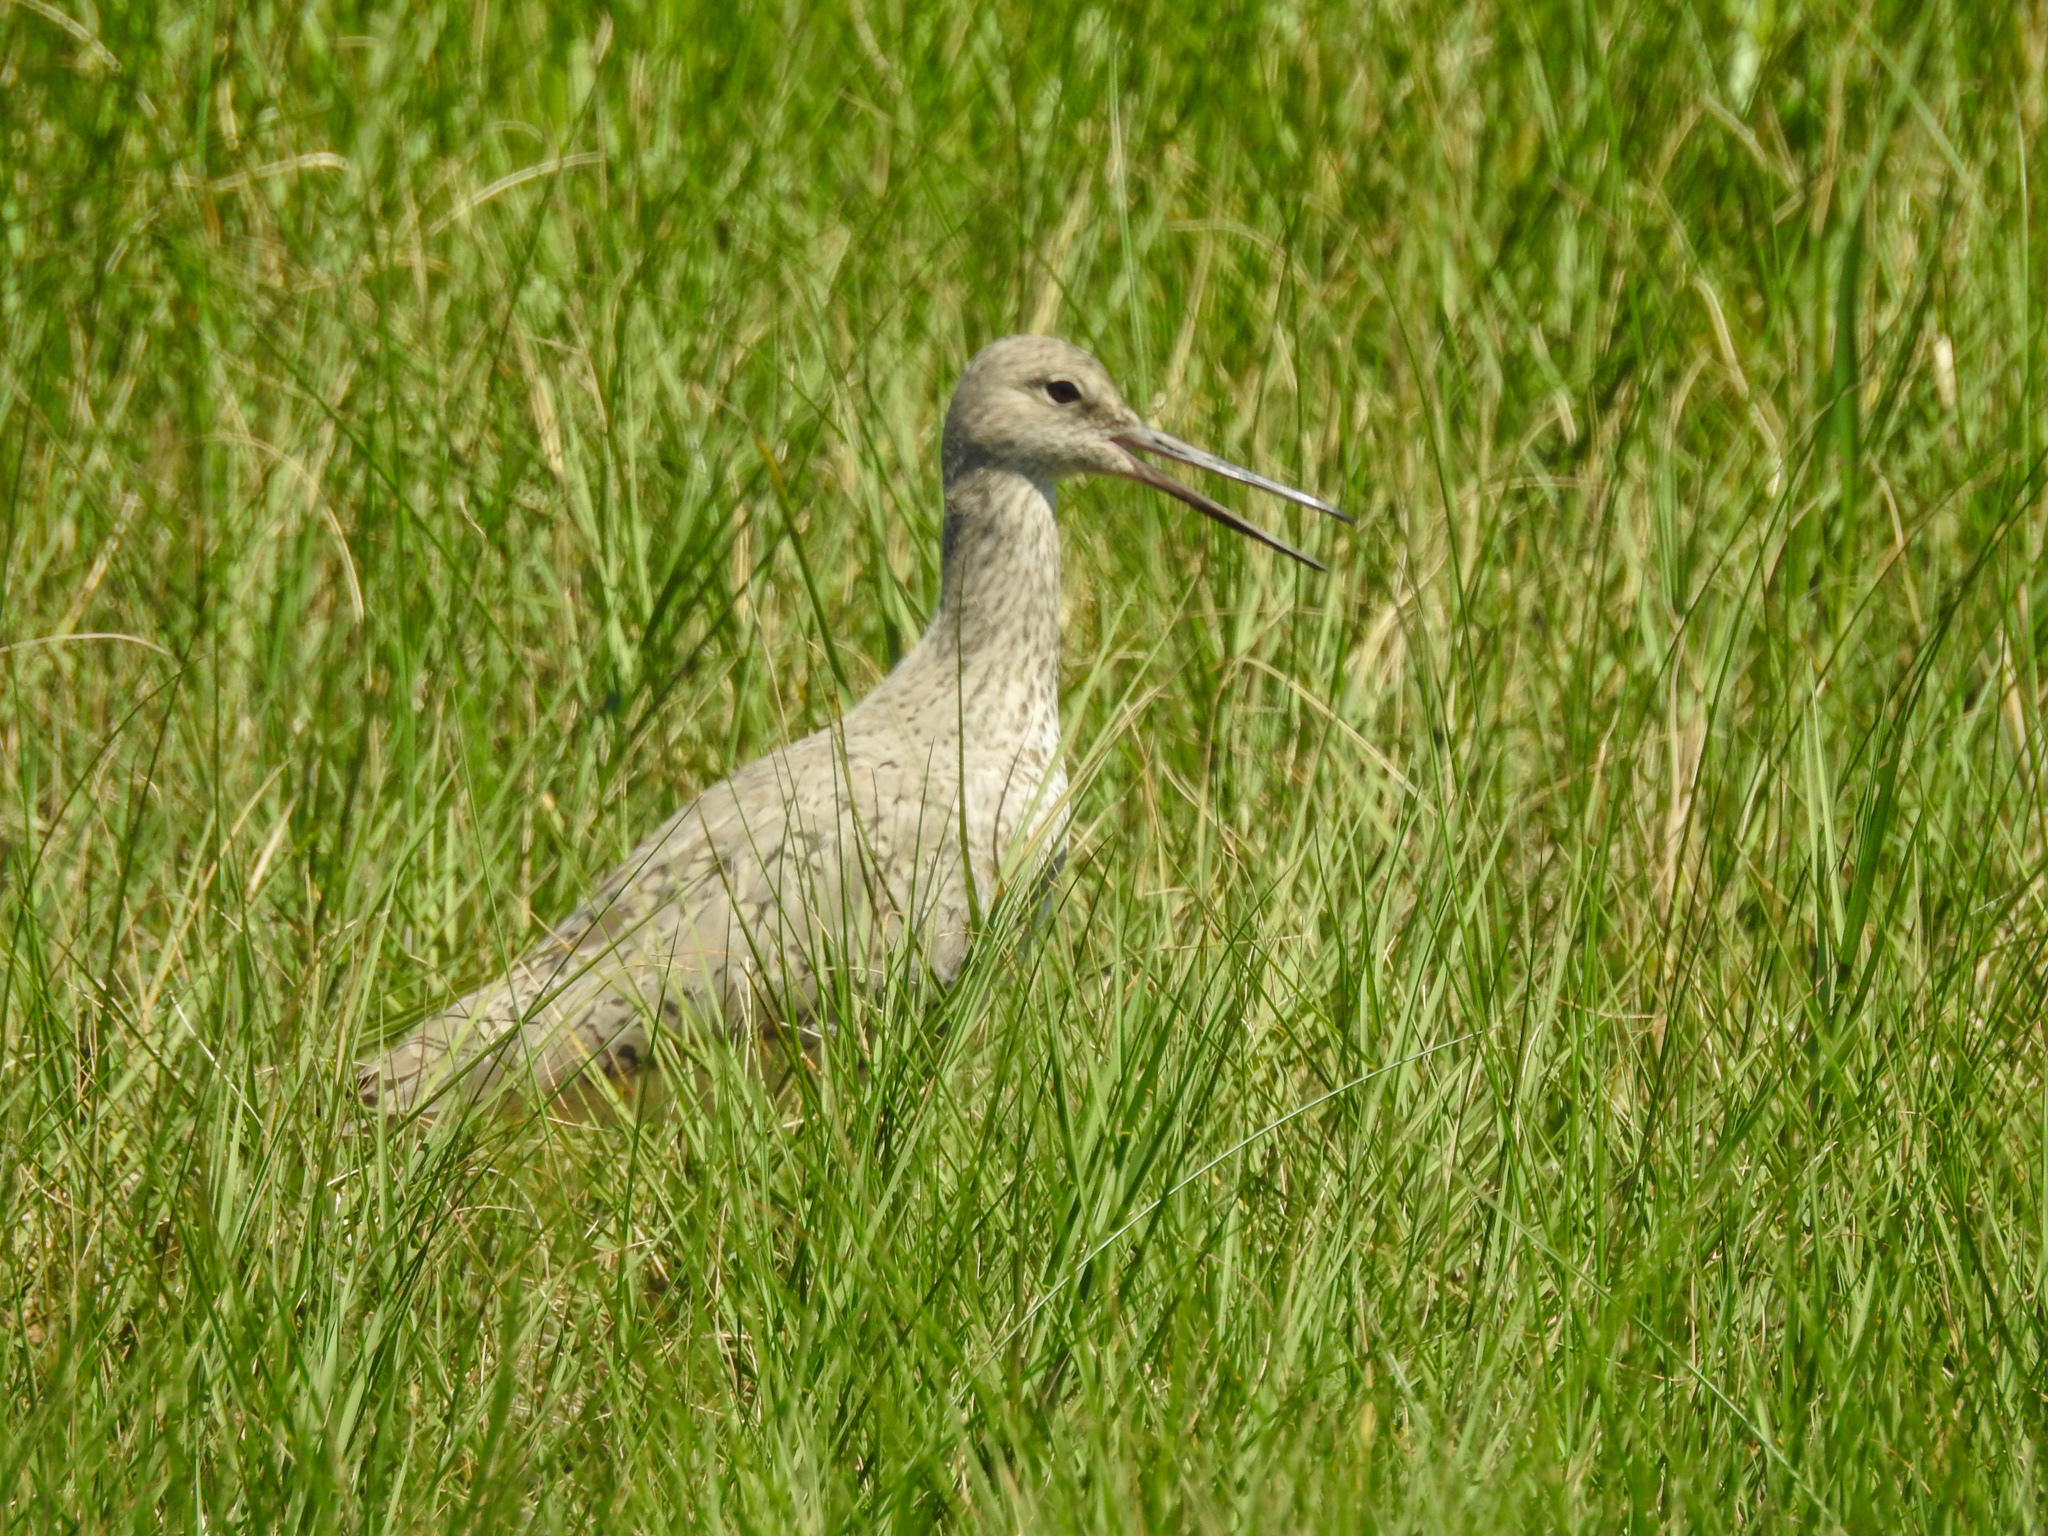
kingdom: Animalia
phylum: Chordata
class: Aves
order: Charadriiformes
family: Scolopacidae
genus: Tringa
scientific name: Tringa semipalmata
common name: Willet
